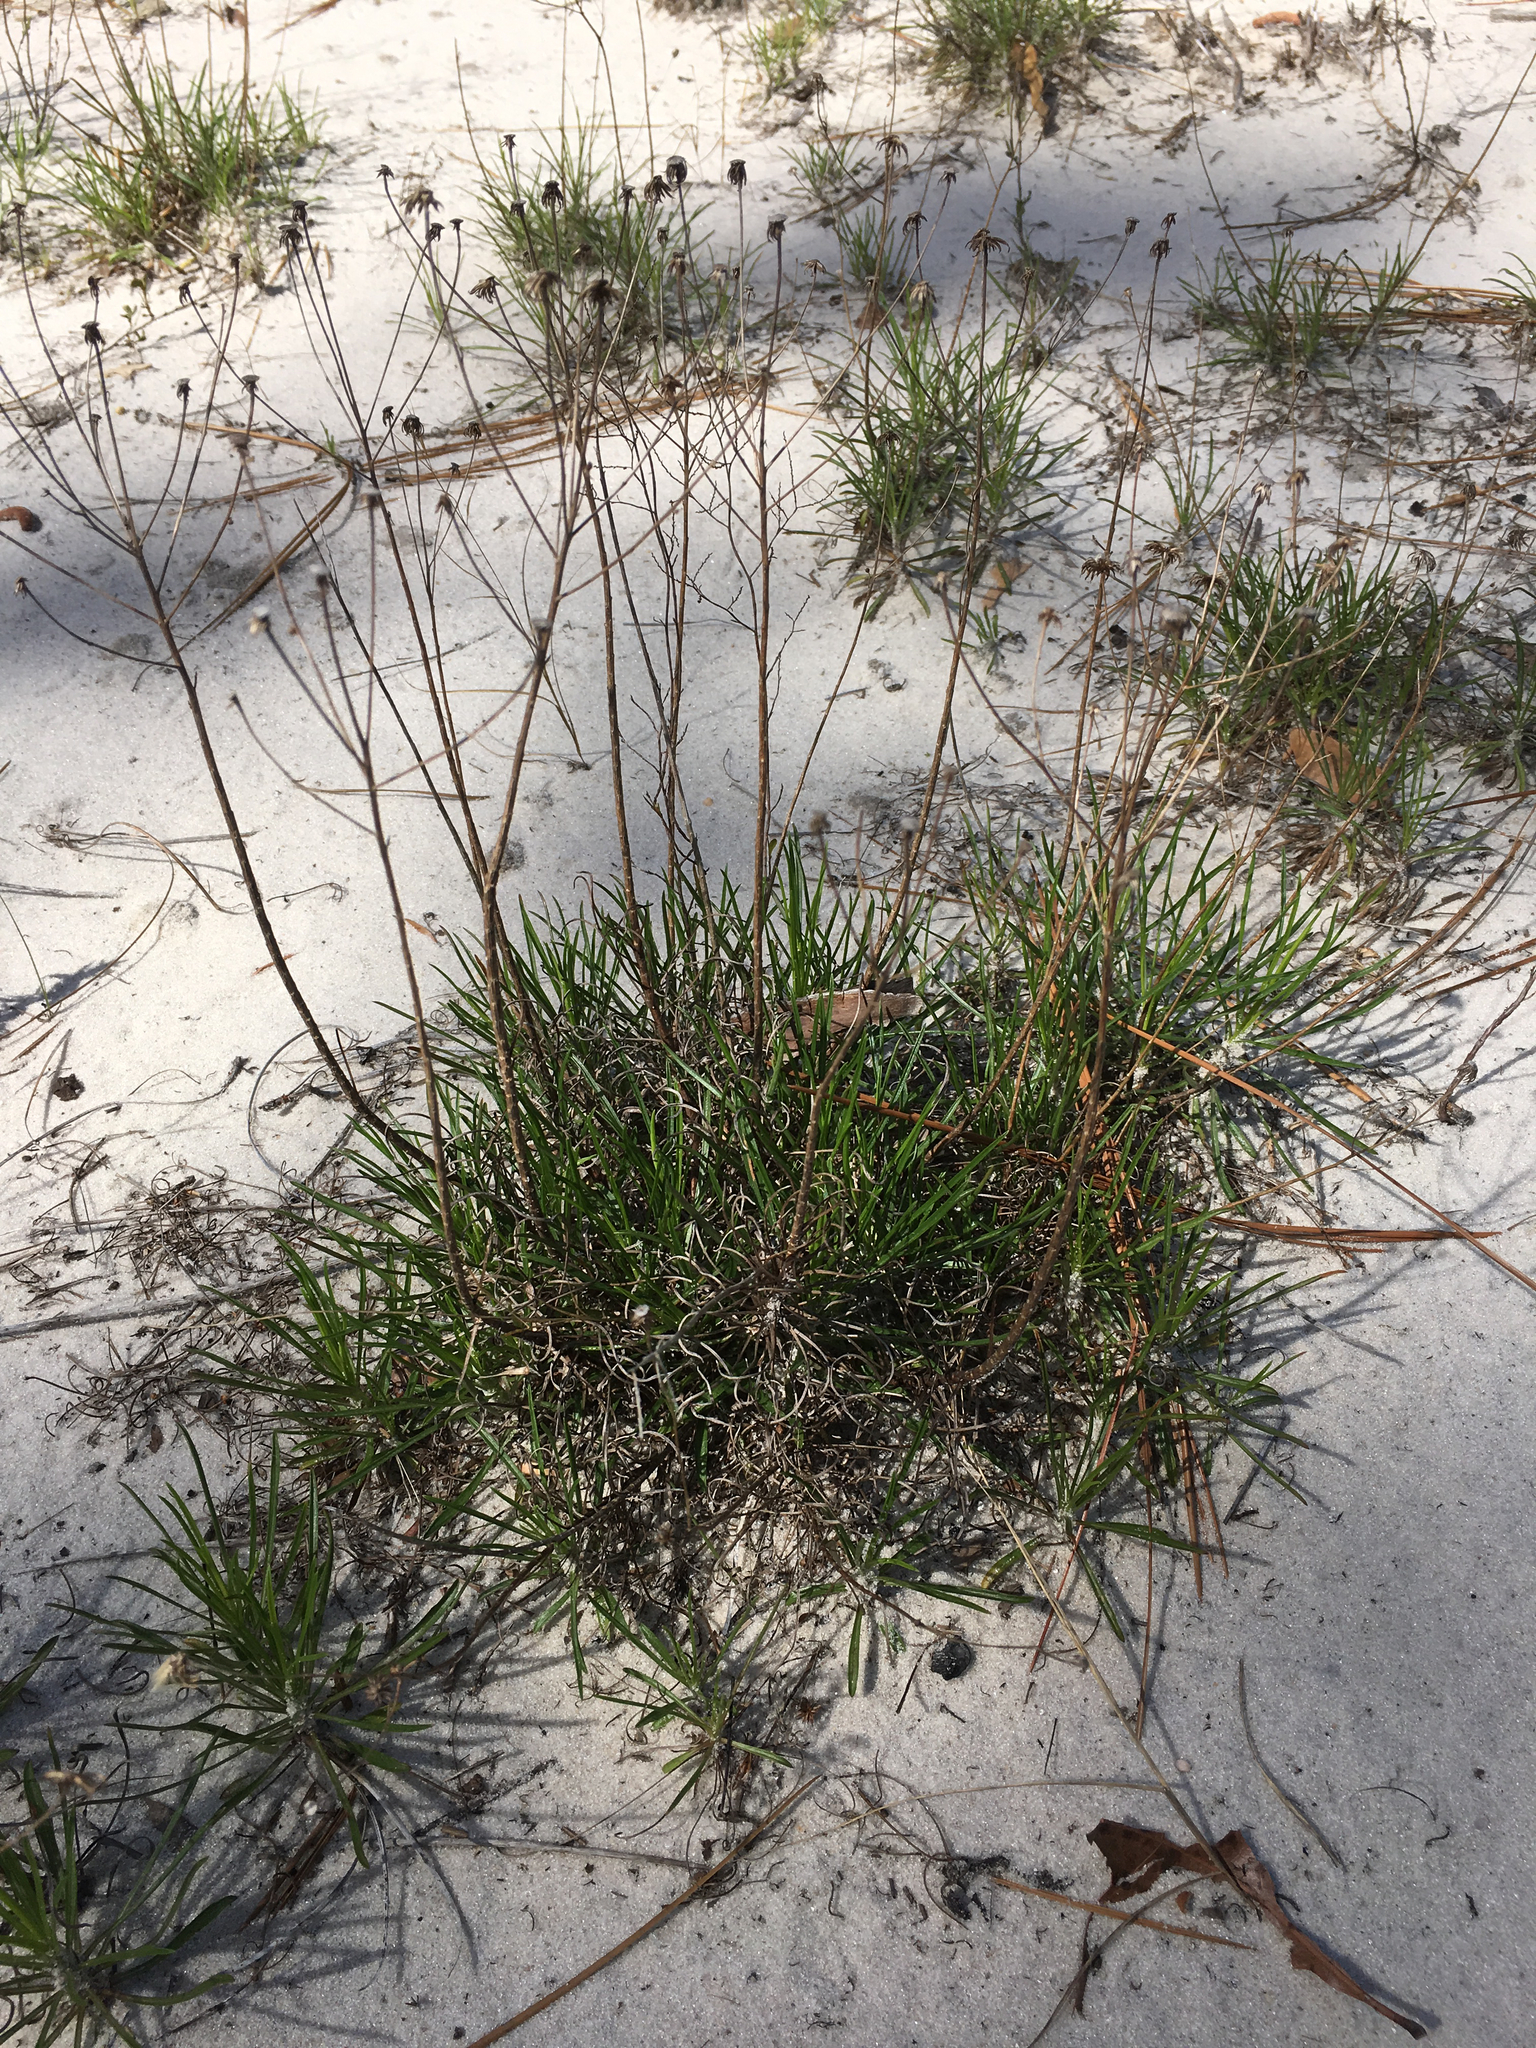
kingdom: Plantae
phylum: Tracheophyta
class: Magnoliopsida
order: Asterales
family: Asteraceae
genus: Pityopsis
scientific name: Pityopsis pinifolia
